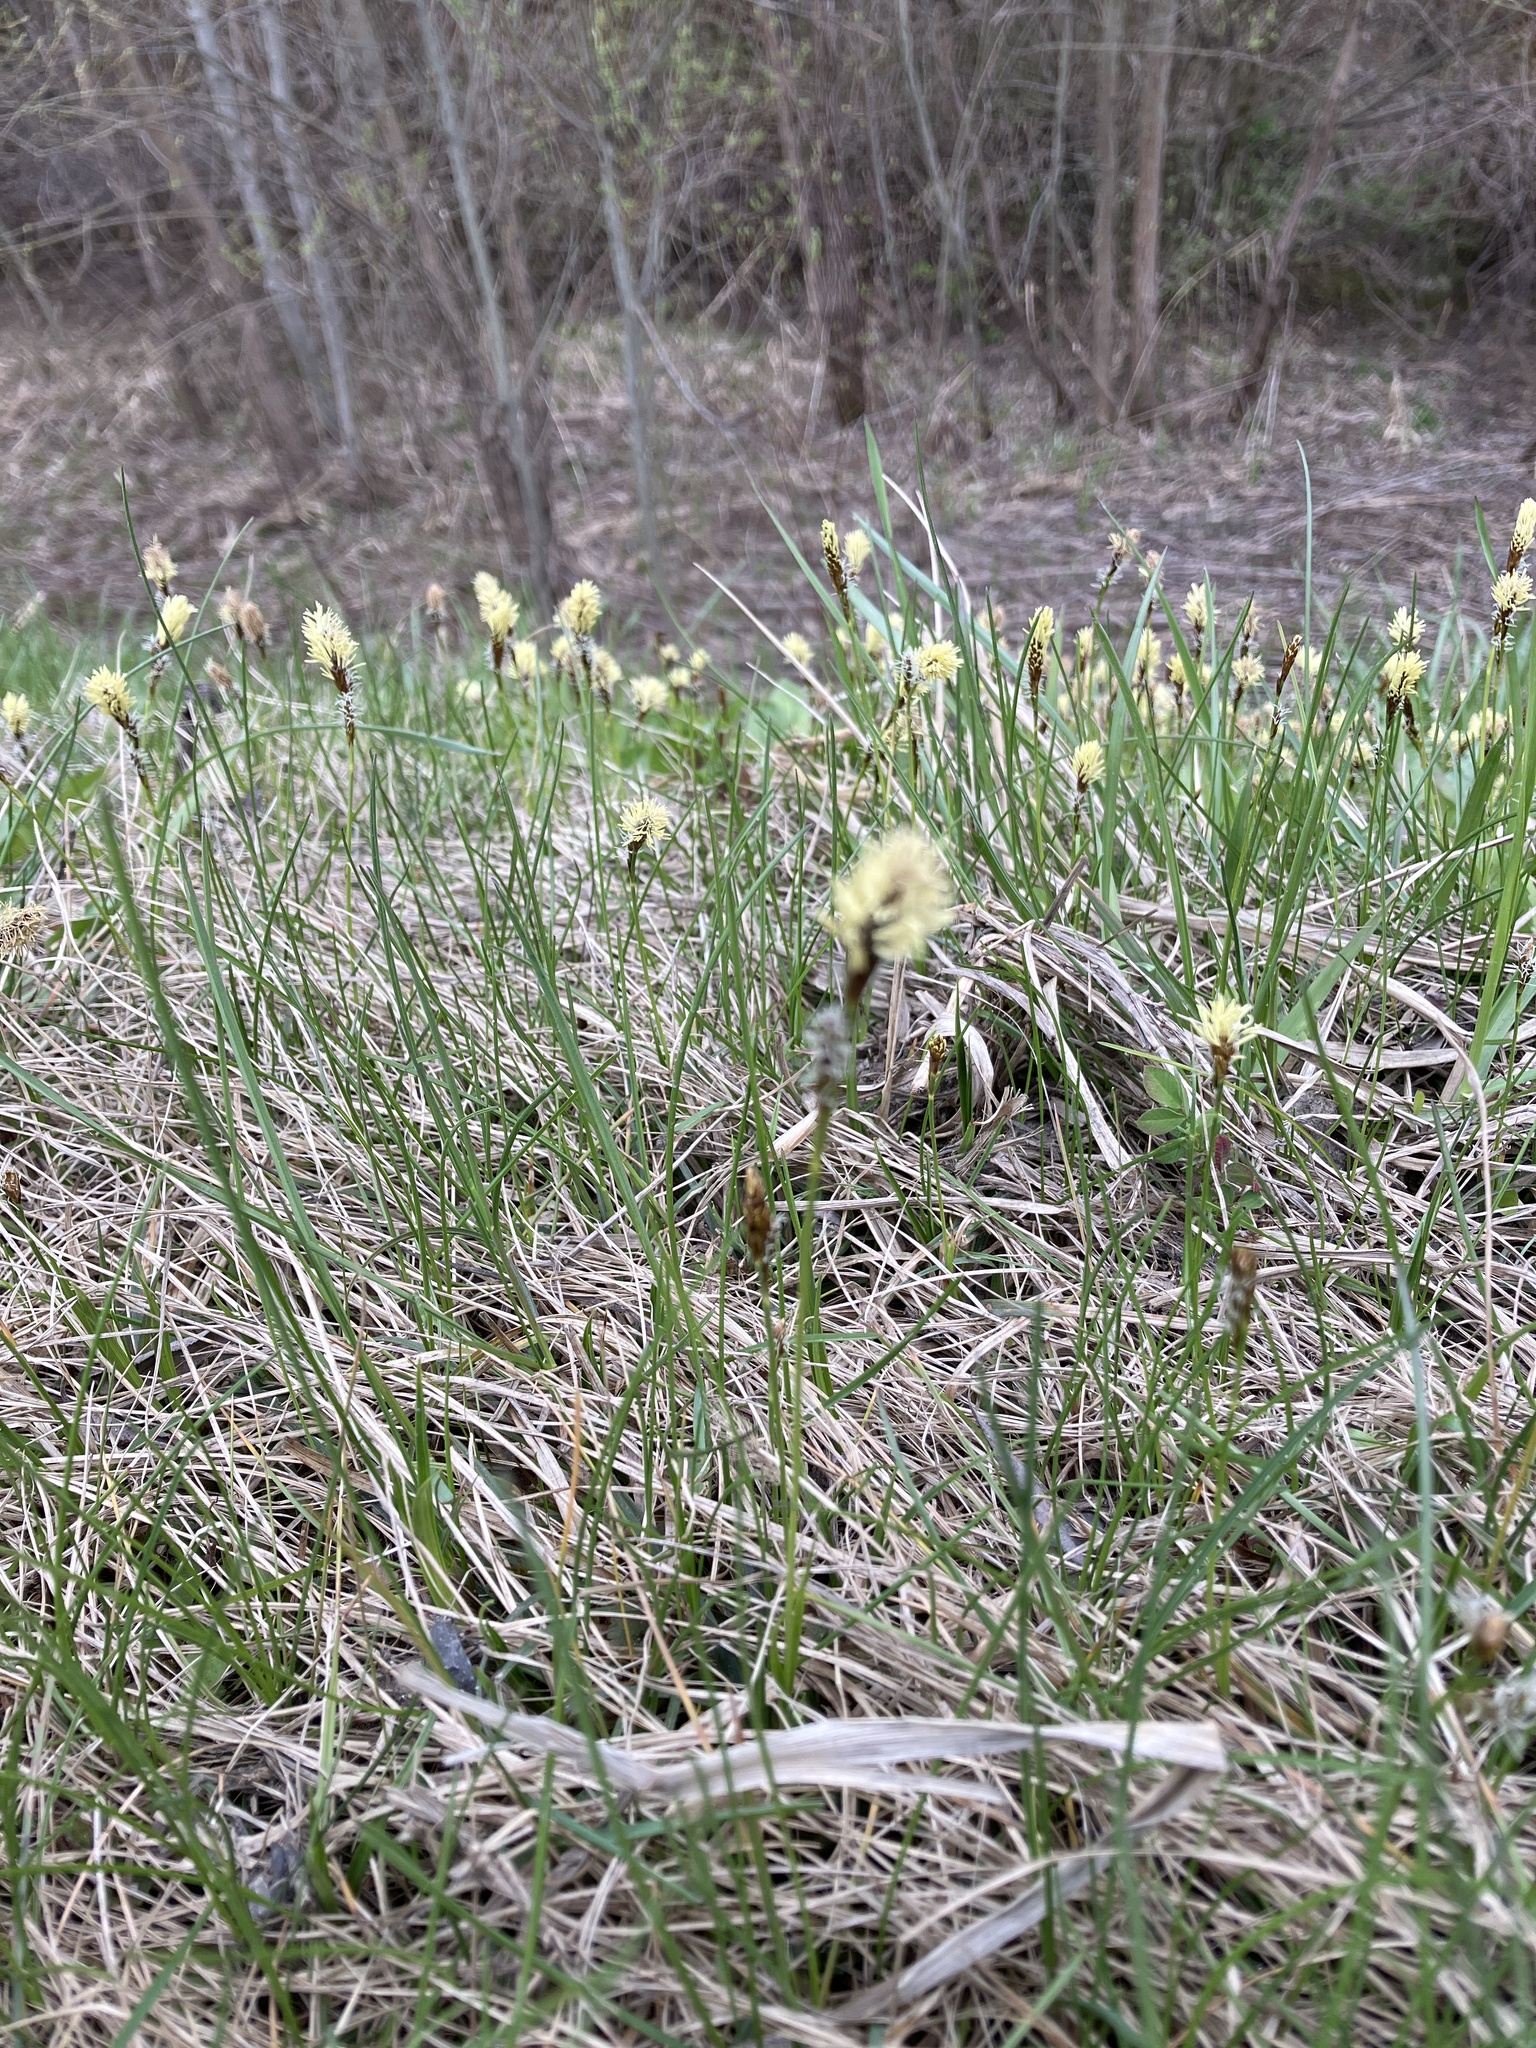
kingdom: Plantae
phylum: Tracheophyta
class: Liliopsida
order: Poales
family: Cyperaceae
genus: Carex
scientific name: Carex caryophyllea
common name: Spring sedge
